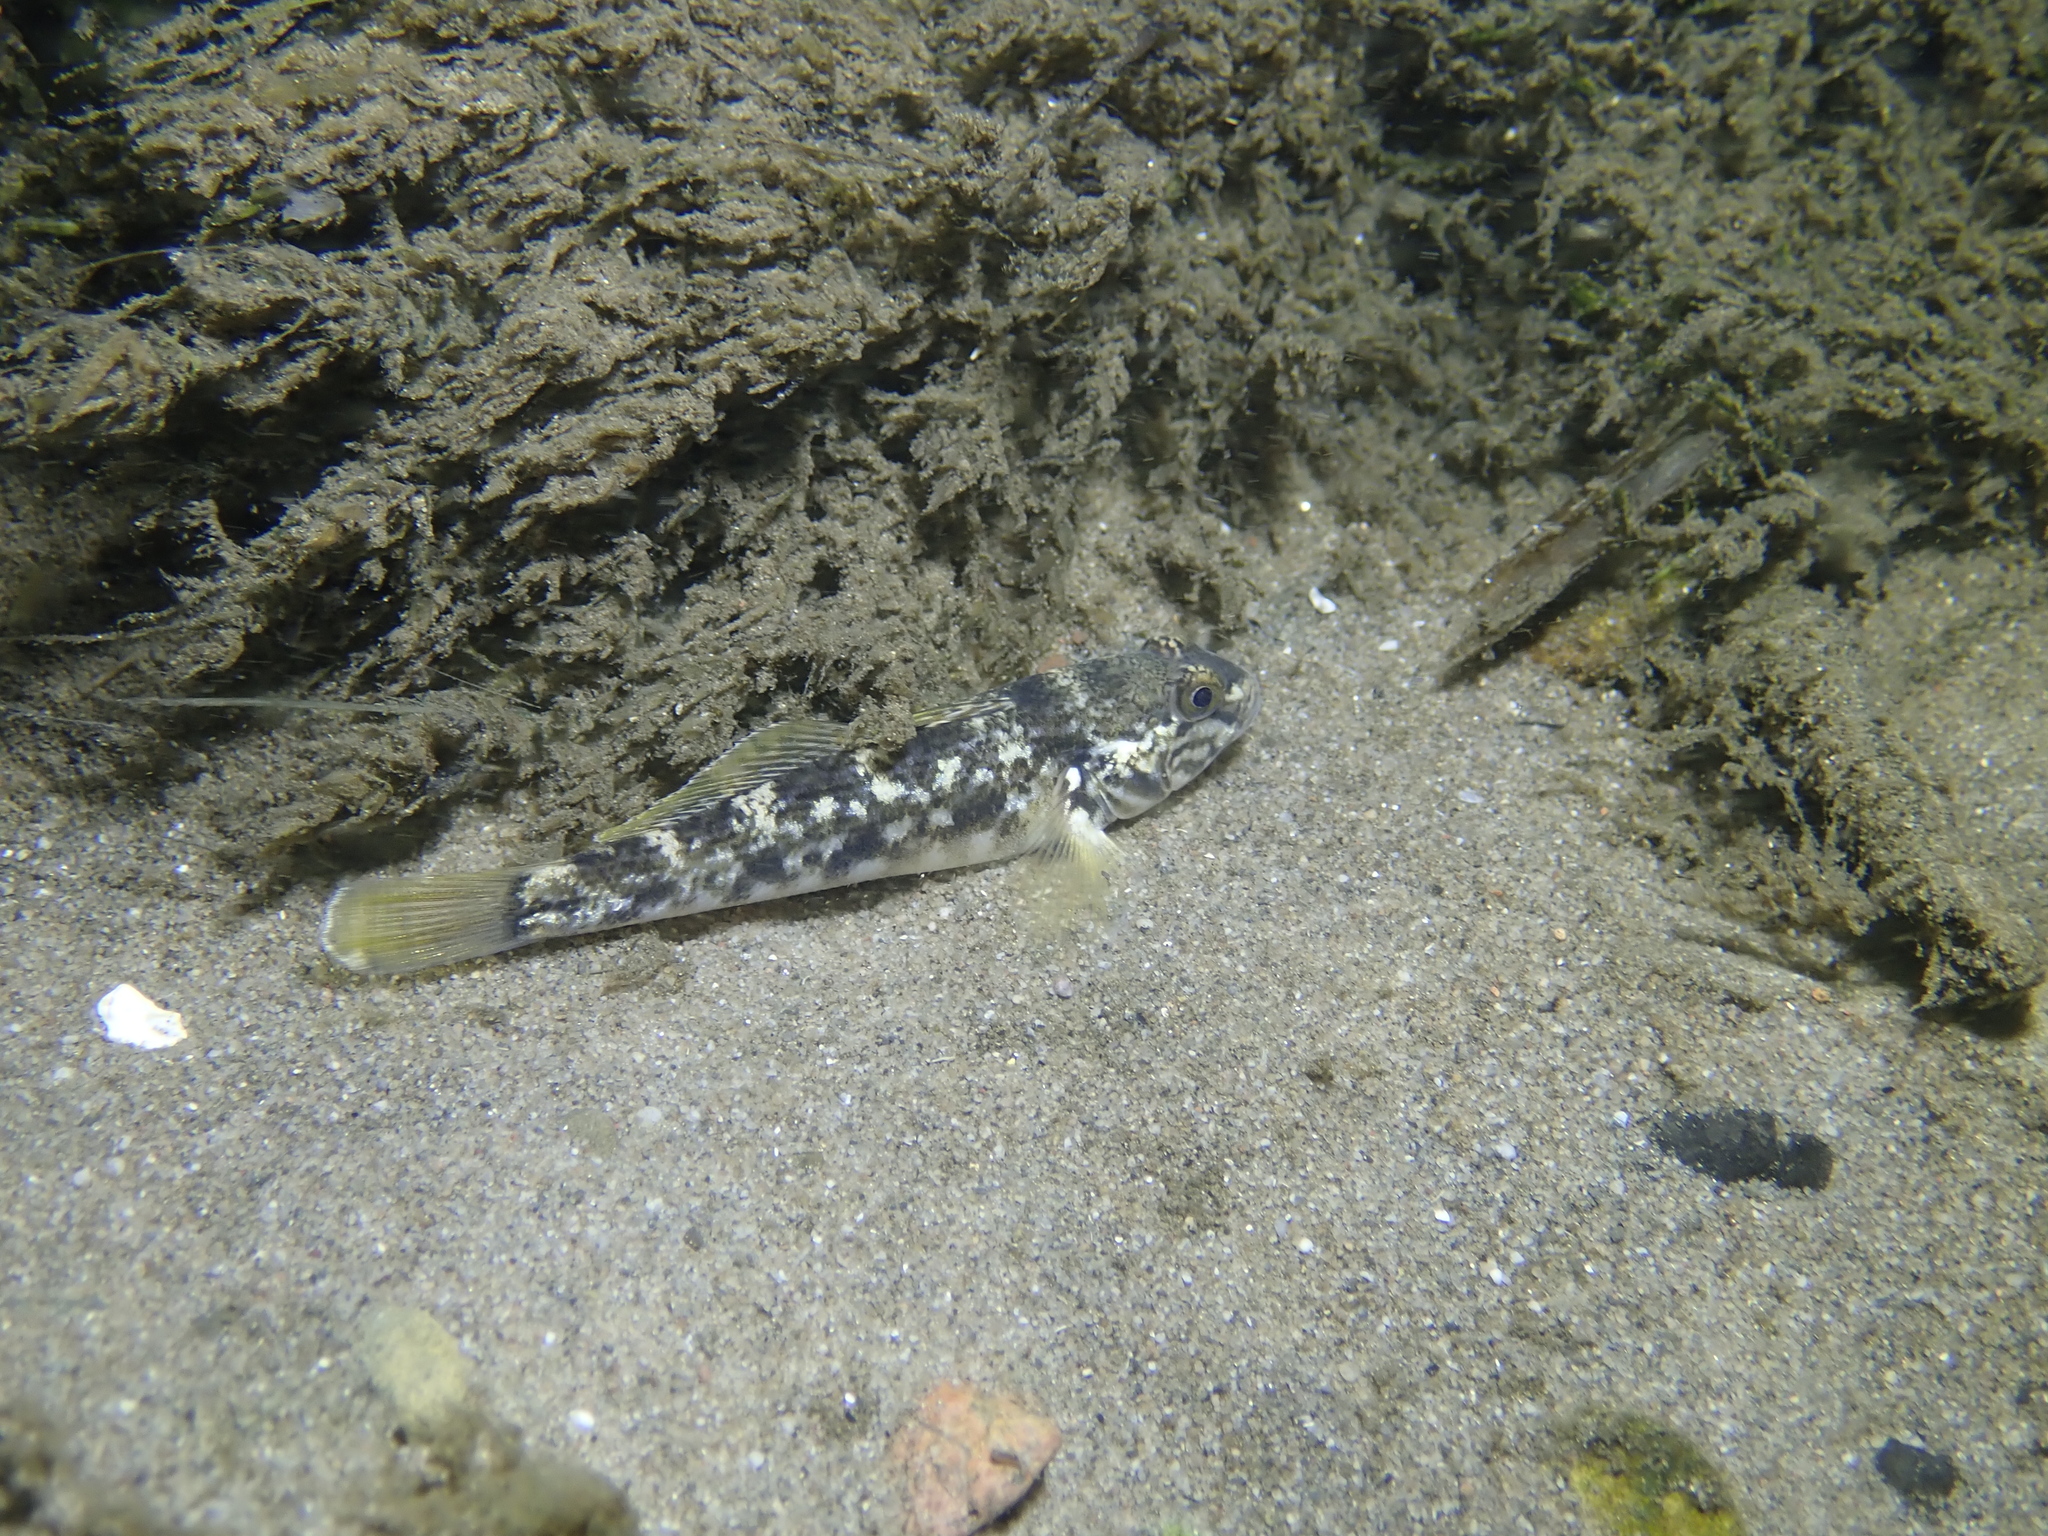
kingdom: Animalia
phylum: Chordata
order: Perciformes
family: Gobiidae
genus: Neogobius
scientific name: Neogobius melanostomus
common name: Round goby
